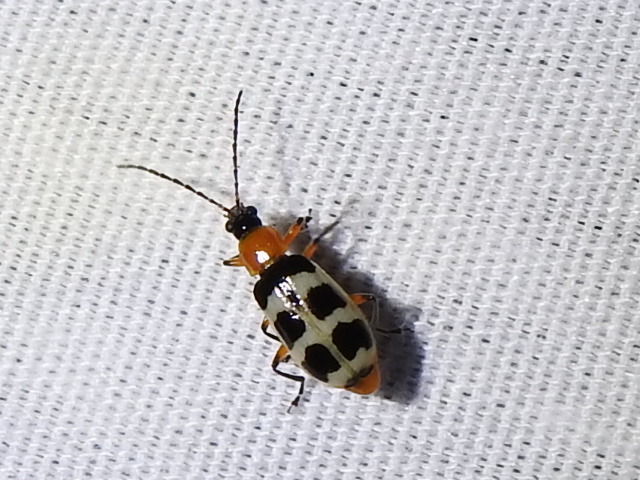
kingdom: Animalia
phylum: Arthropoda
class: Insecta
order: Coleoptera
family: Chrysomelidae
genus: Paranapiacaba
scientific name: Paranapiacaba tricincta
